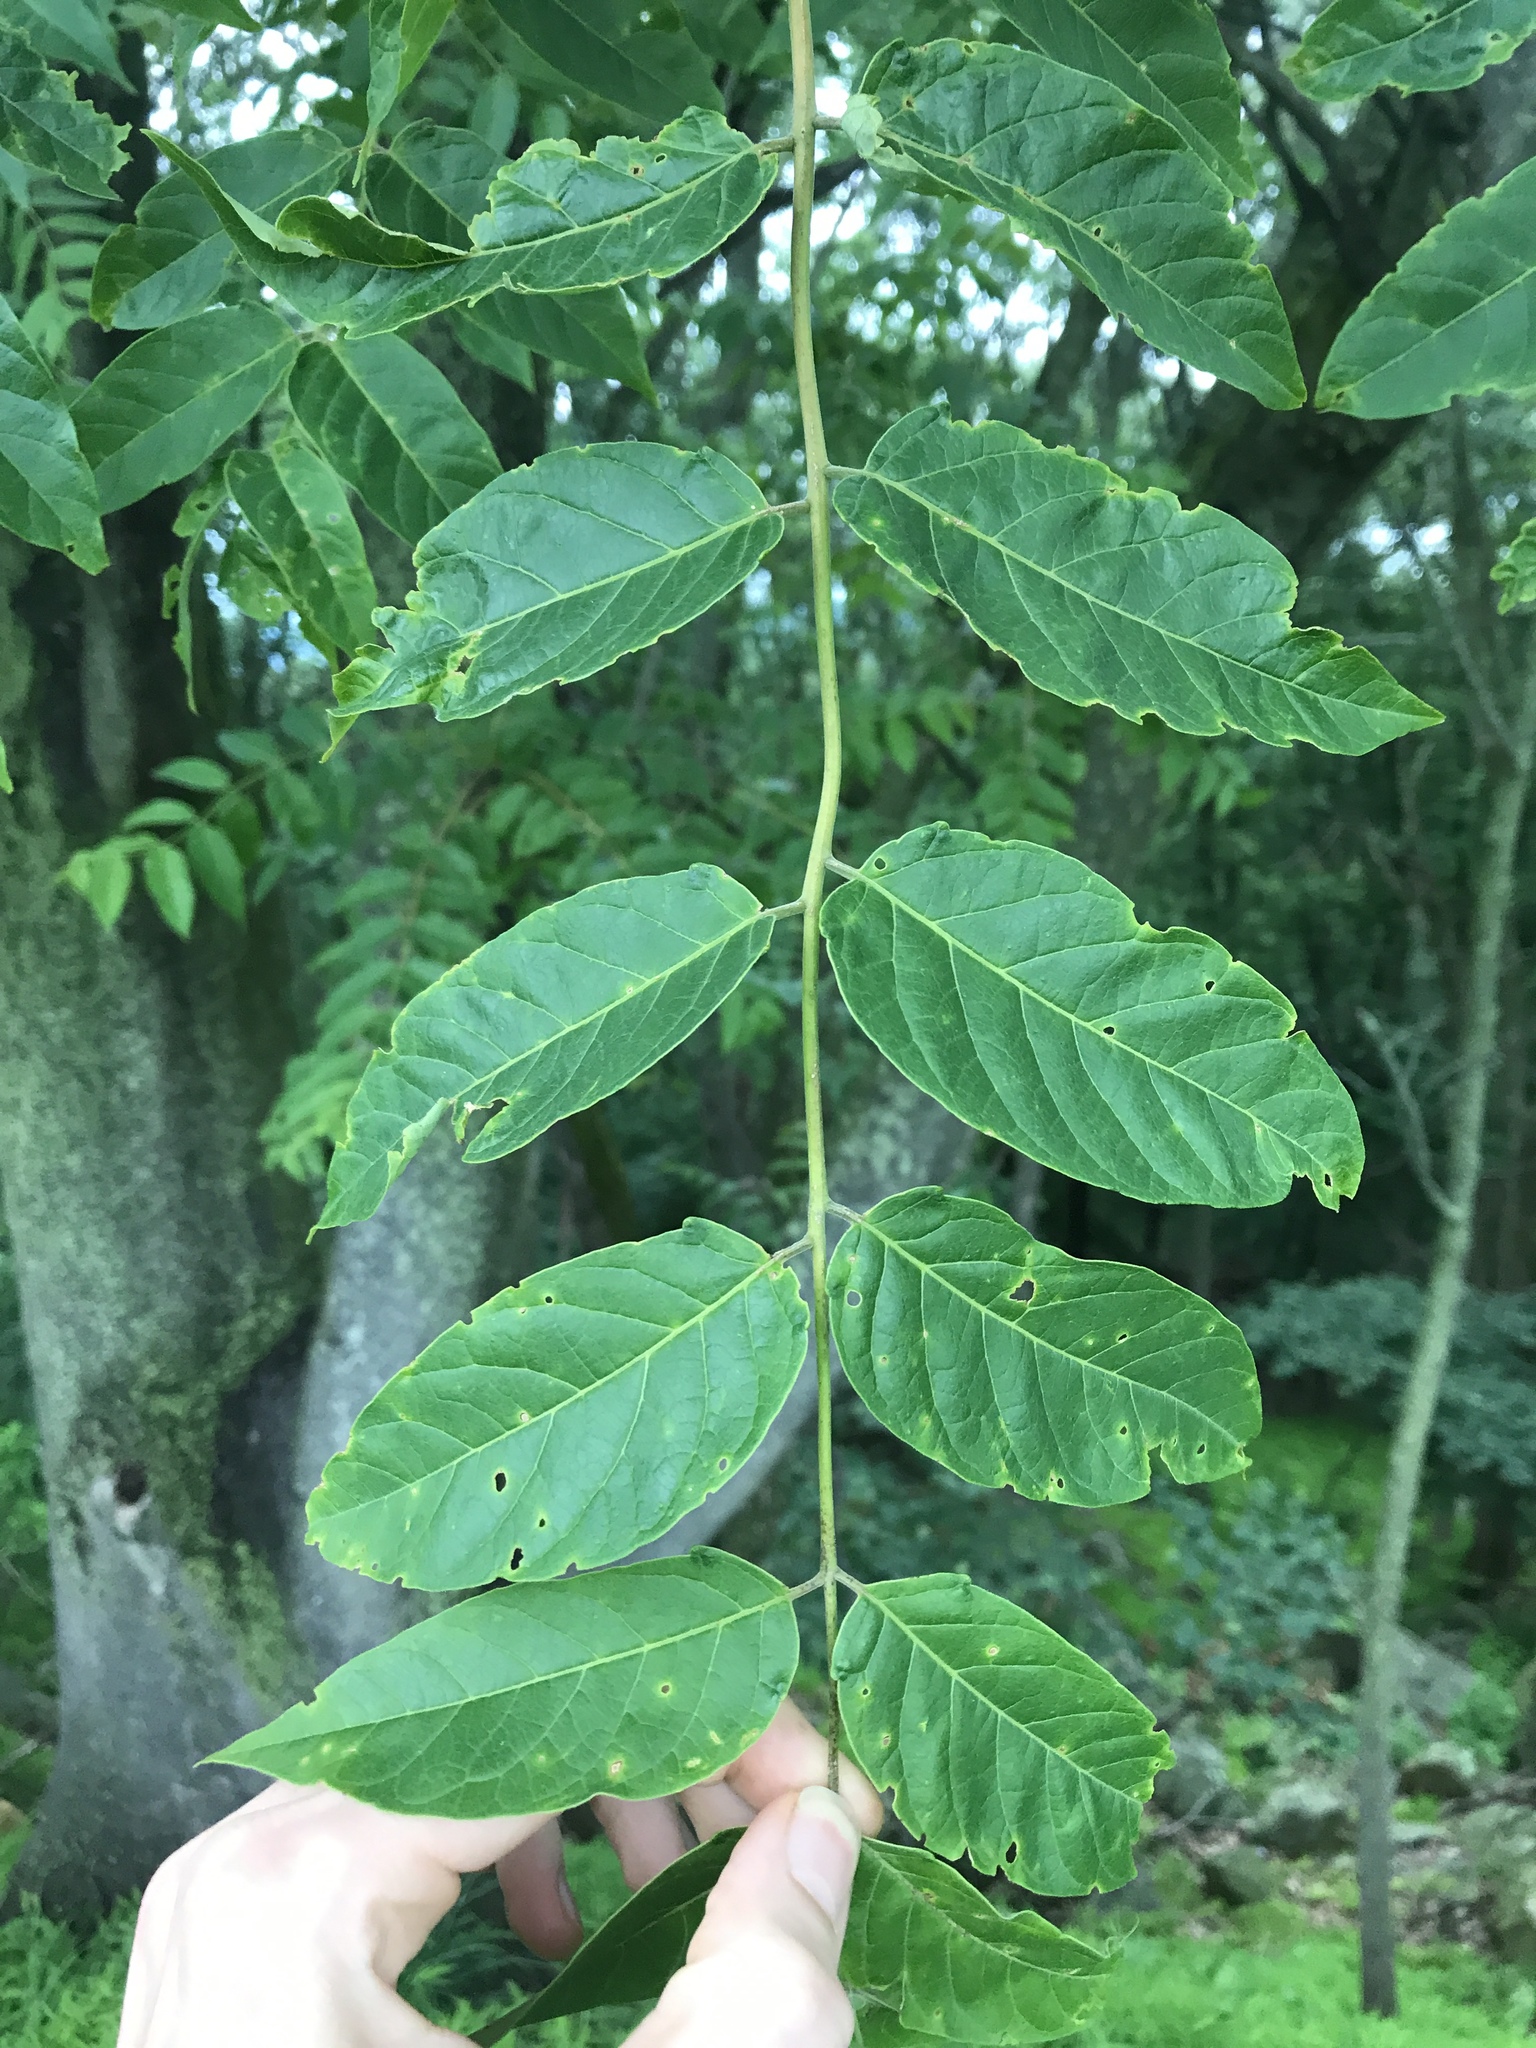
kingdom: Plantae
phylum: Tracheophyta
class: Magnoliopsida
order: Sapindales
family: Simaroubaceae
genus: Ailanthus
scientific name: Ailanthus altissima
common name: Tree-of-heaven
